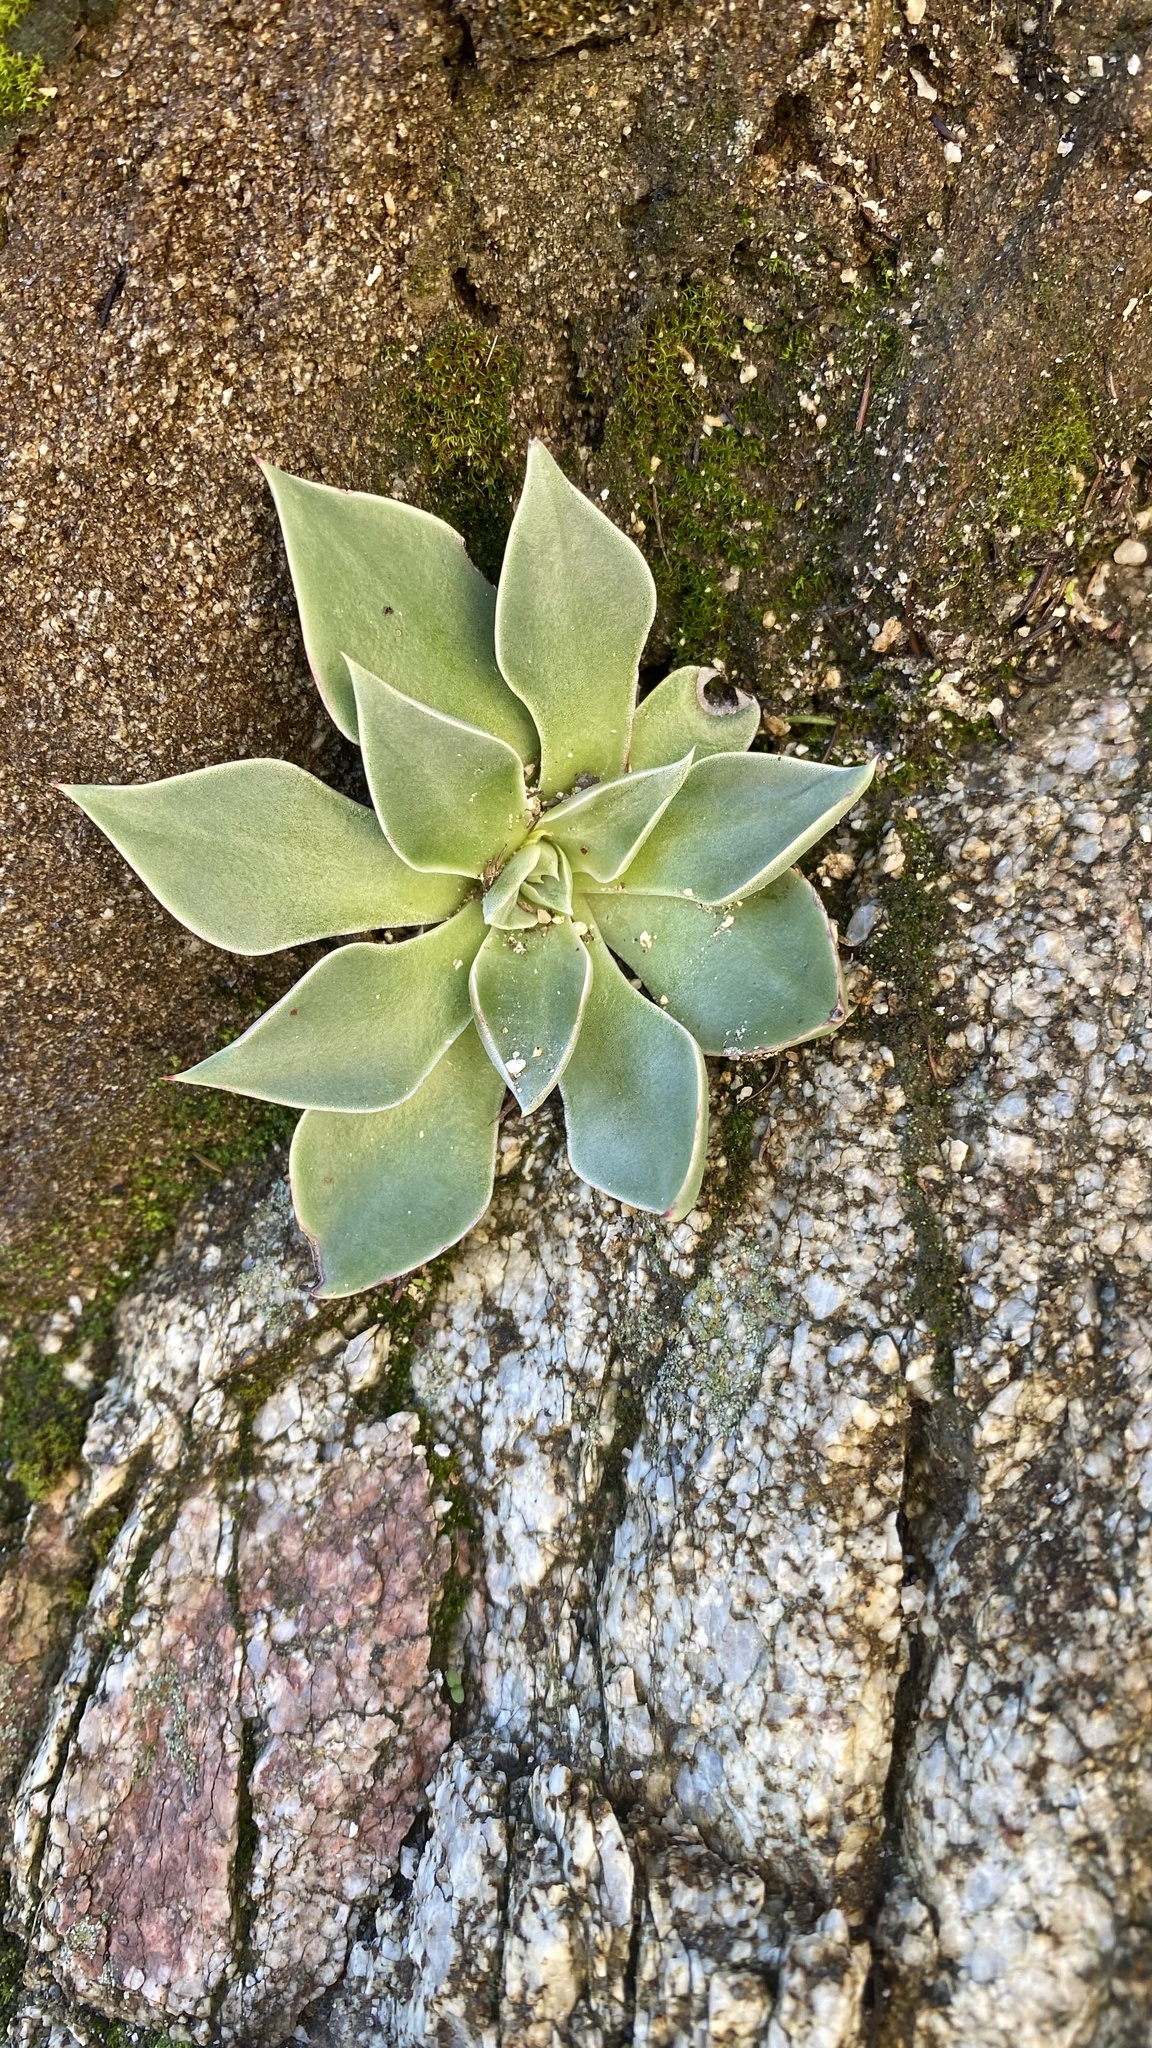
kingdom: Plantae
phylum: Tracheophyta
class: Magnoliopsida
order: Saxifragales
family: Crassulaceae
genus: Dudleya
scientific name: Dudleya cymosa
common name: Canyon dudleya
